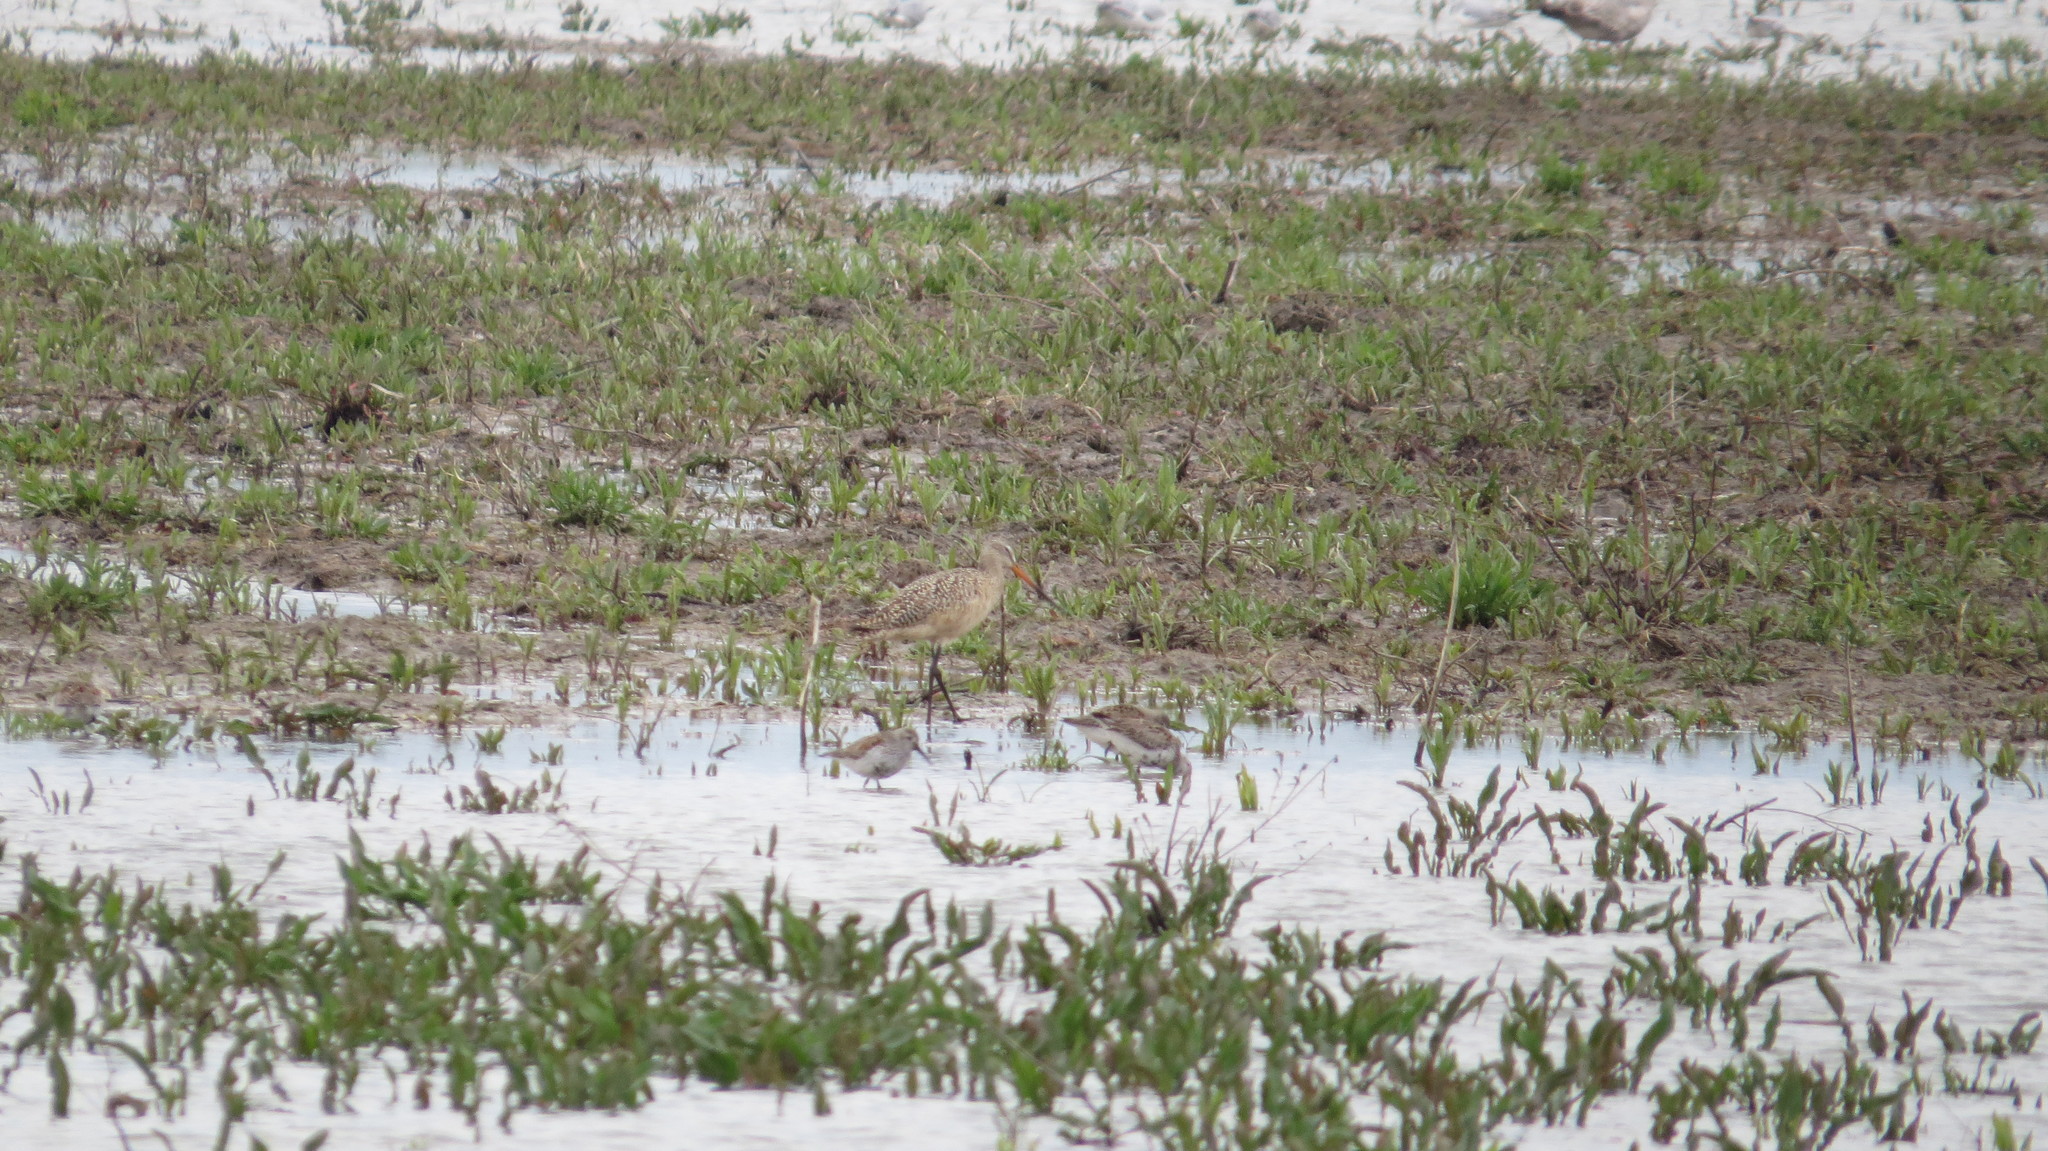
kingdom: Animalia
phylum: Chordata
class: Aves
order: Charadriiformes
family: Scolopacidae
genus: Limosa
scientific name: Limosa fedoa
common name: Marbled godwit
